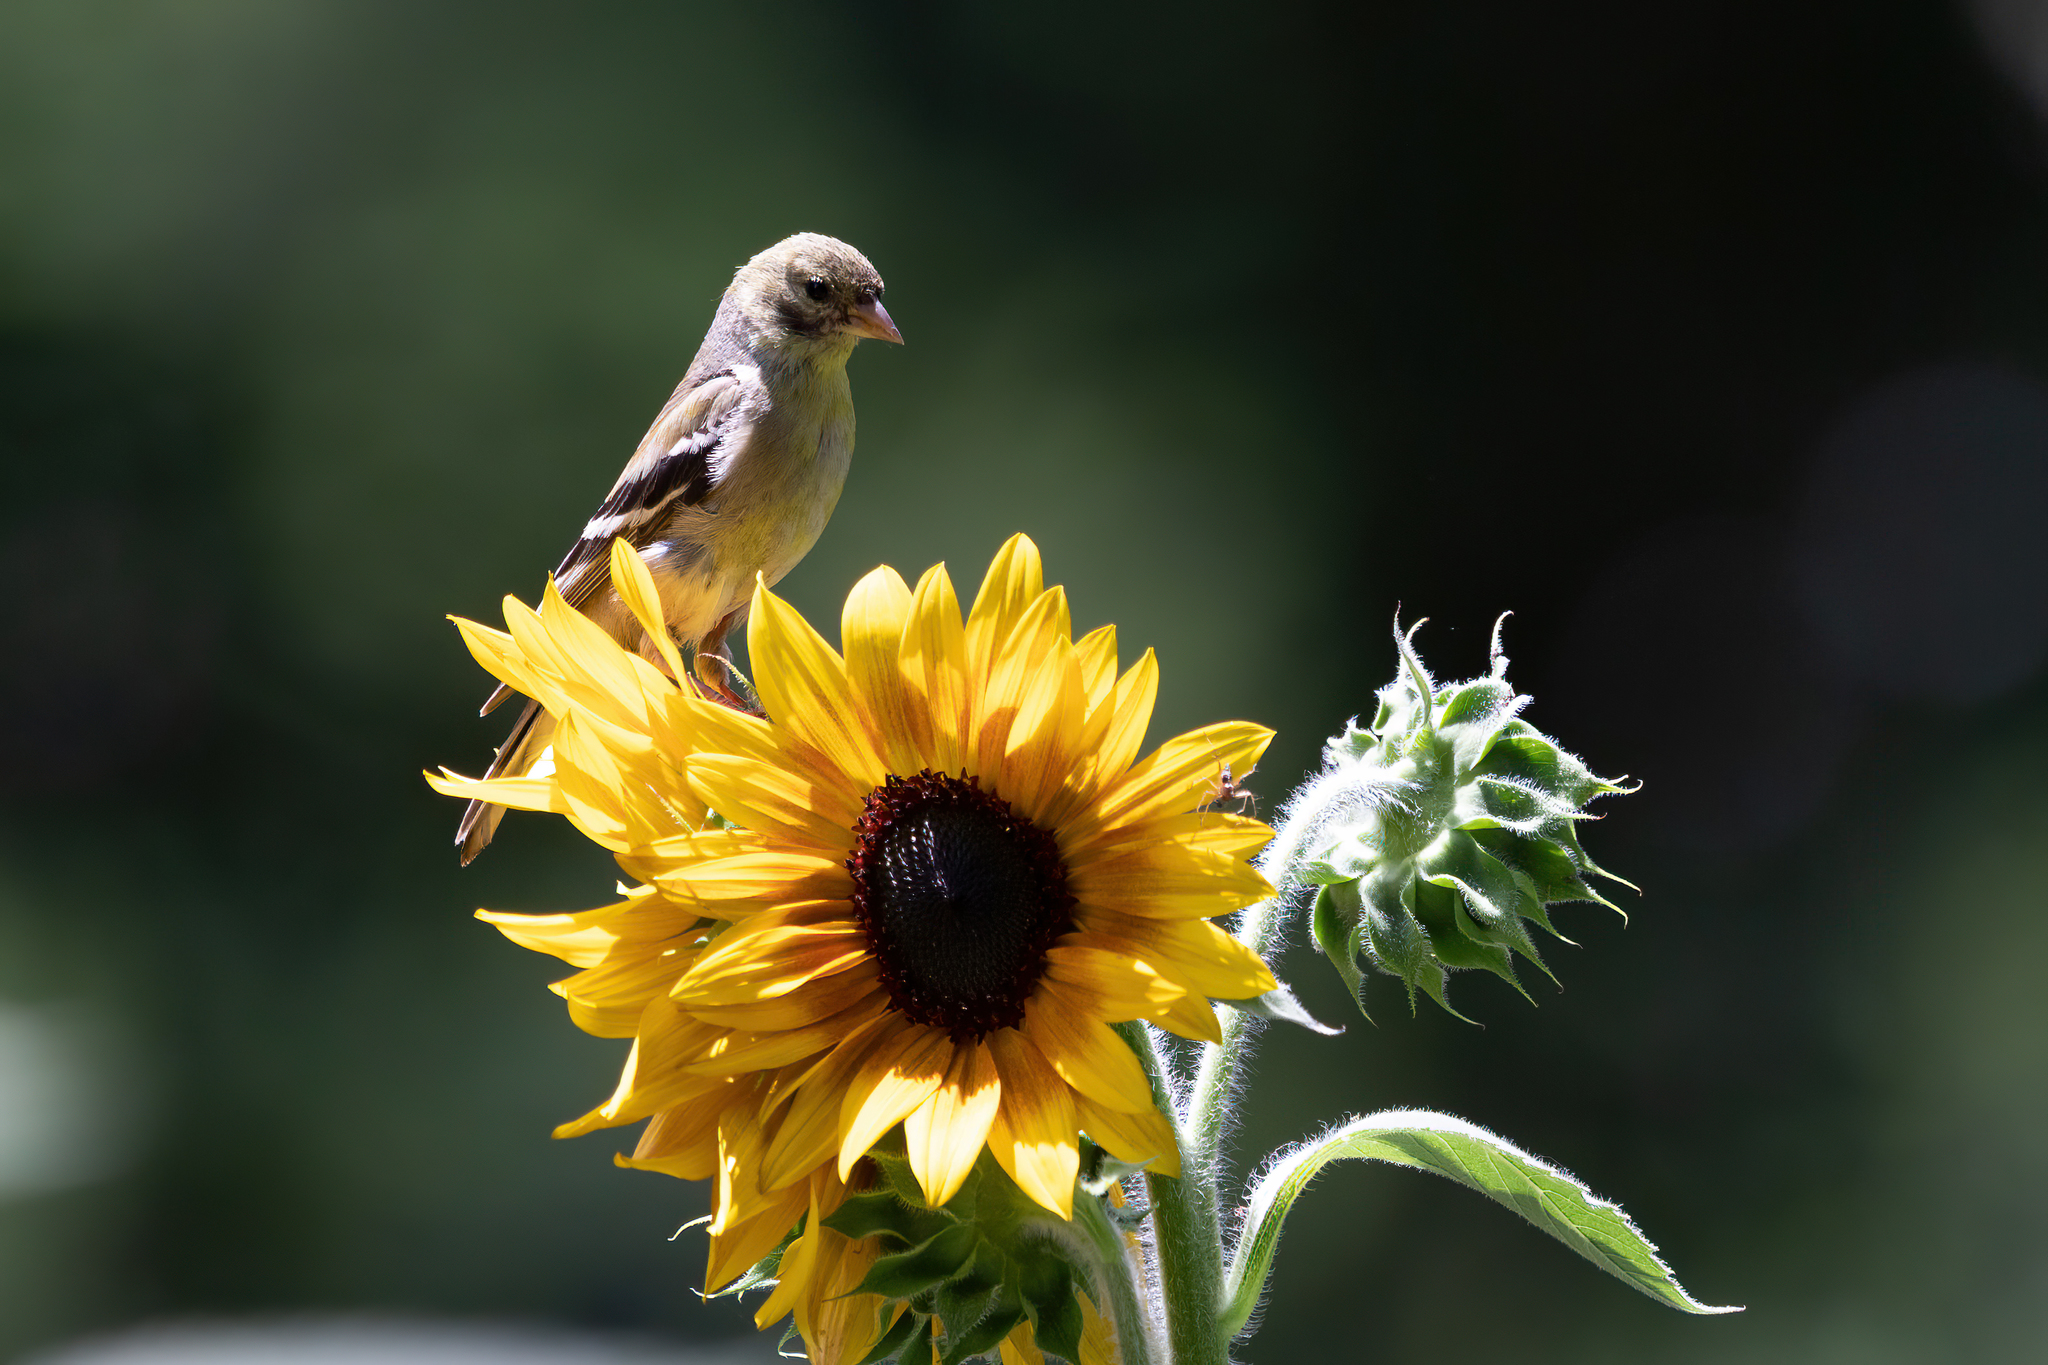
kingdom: Animalia
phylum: Chordata
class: Aves
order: Passeriformes
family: Fringillidae
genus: Spinus
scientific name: Spinus tristis
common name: American goldfinch
